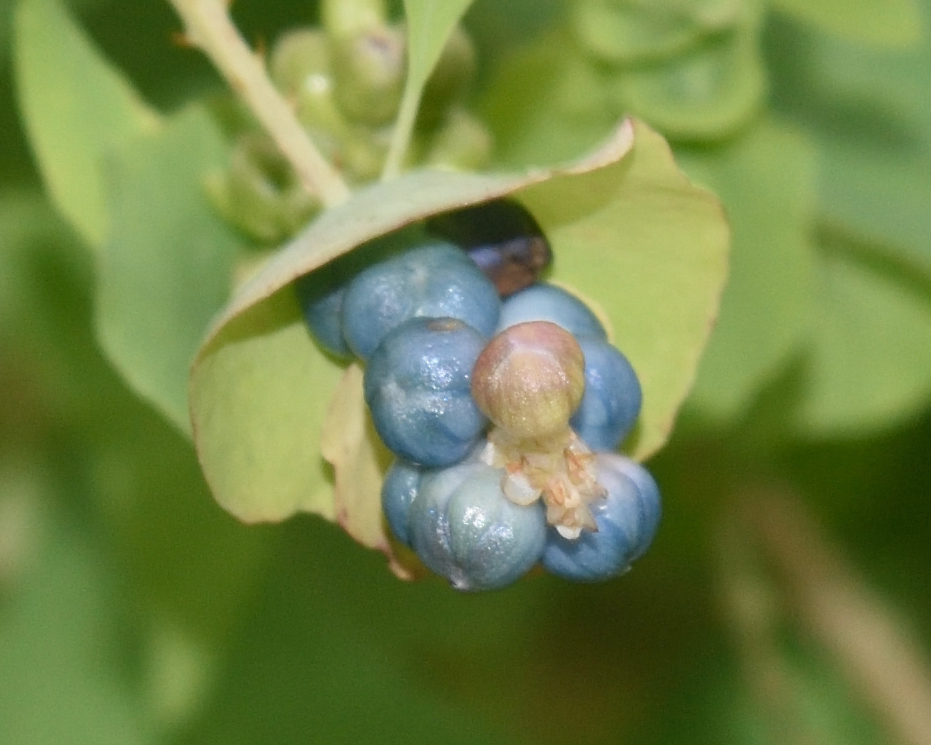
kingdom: Plantae
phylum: Tracheophyta
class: Magnoliopsida
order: Caryophyllales
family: Polygonaceae
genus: Persicaria
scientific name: Persicaria perfoliata
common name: Asiatic tearthumb
